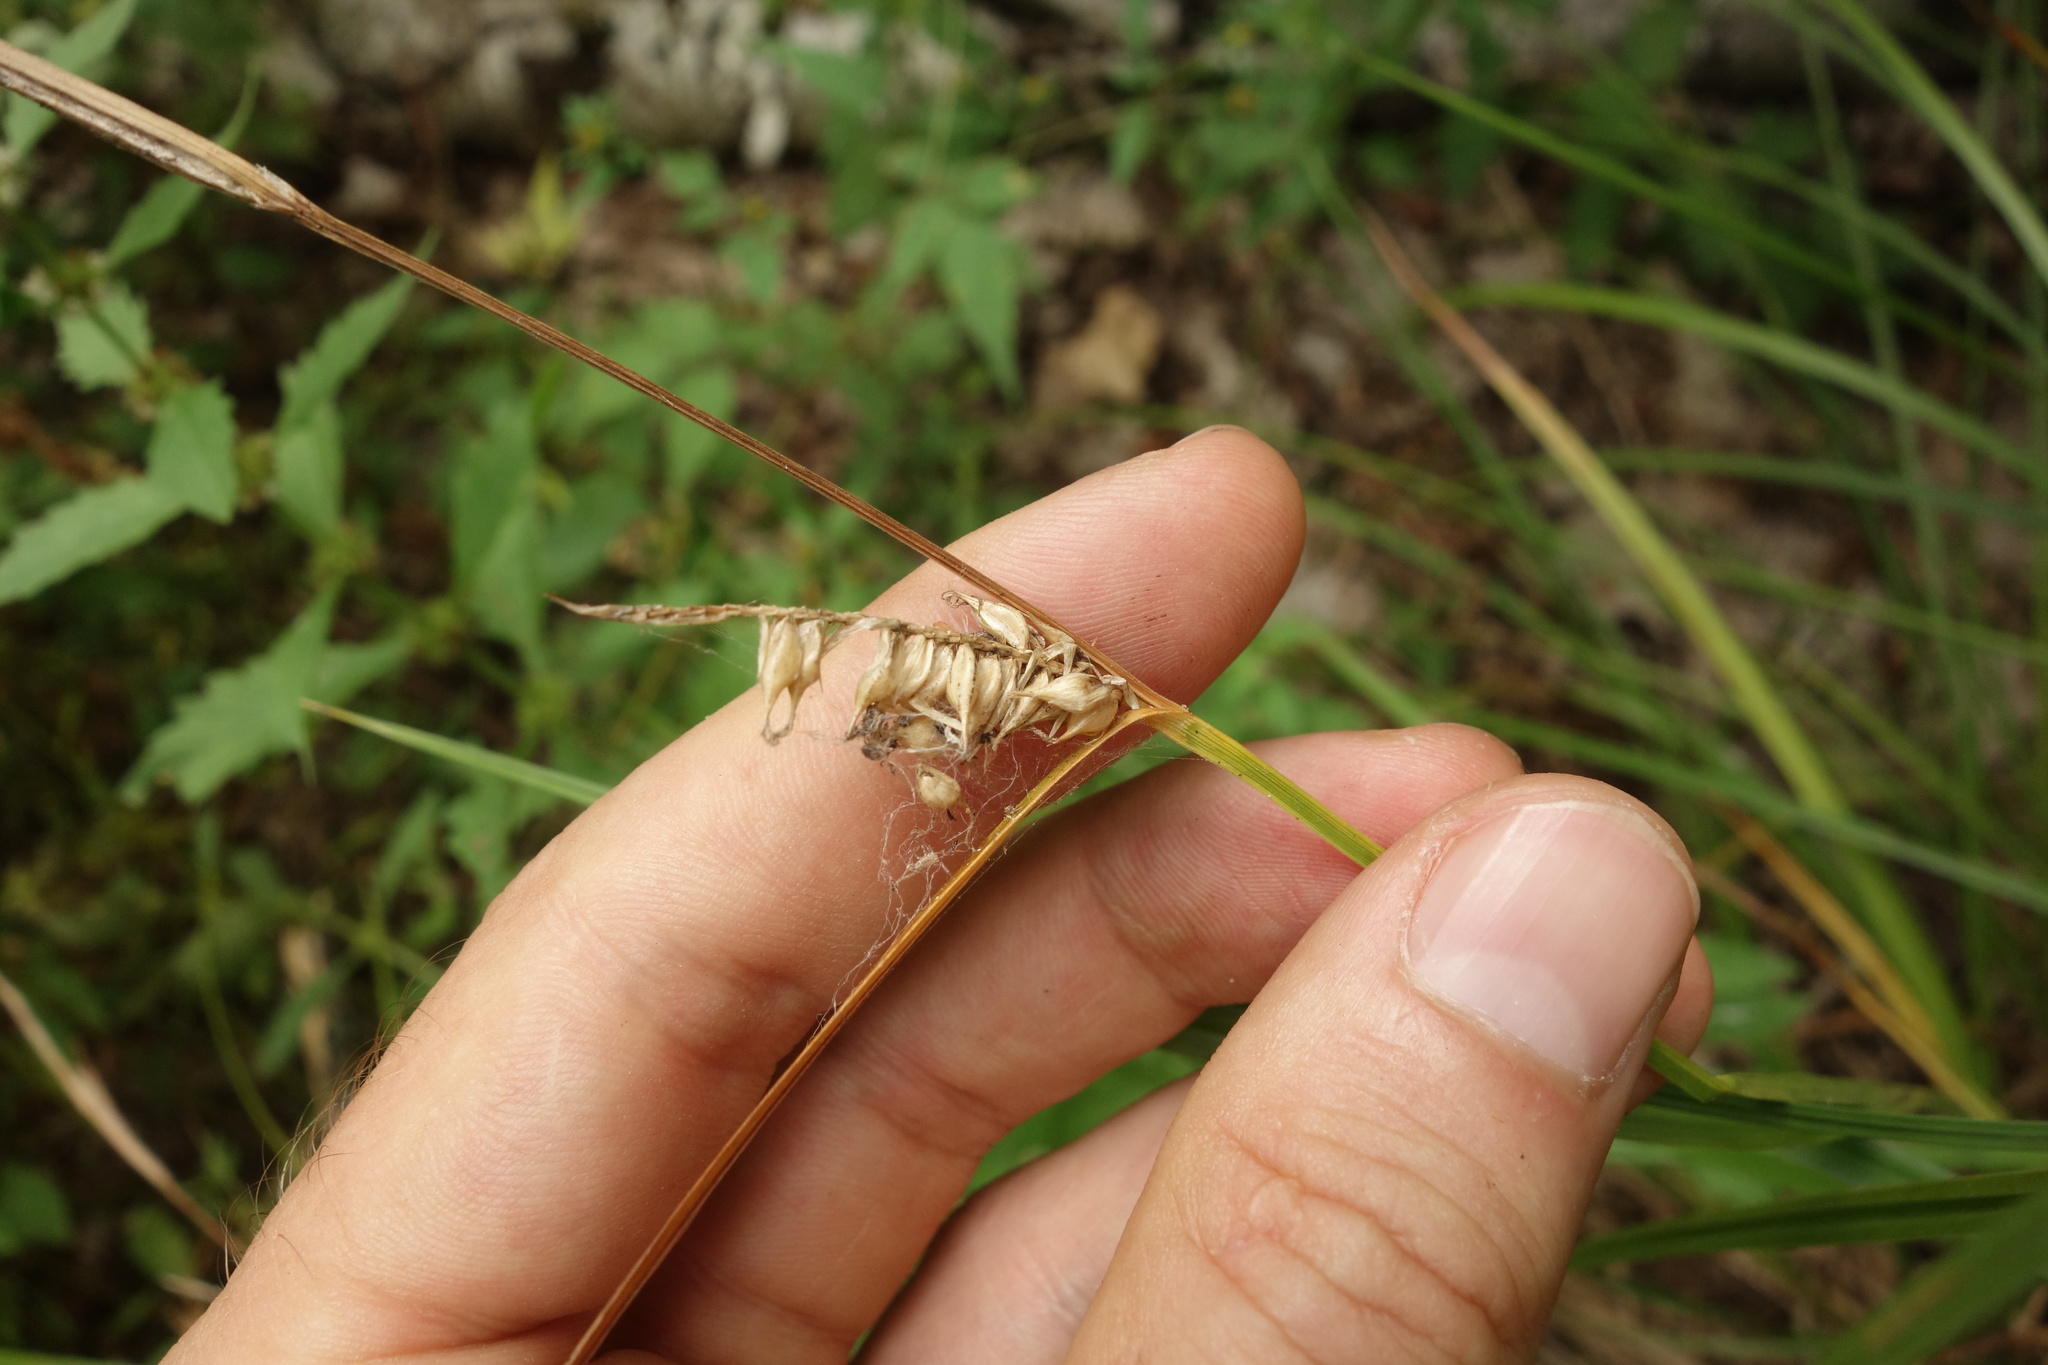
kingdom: Plantae
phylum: Tracheophyta
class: Liliopsida
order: Poales
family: Cyperaceae
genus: Carex
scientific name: Carex vesicaria
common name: Bladder-sedge
